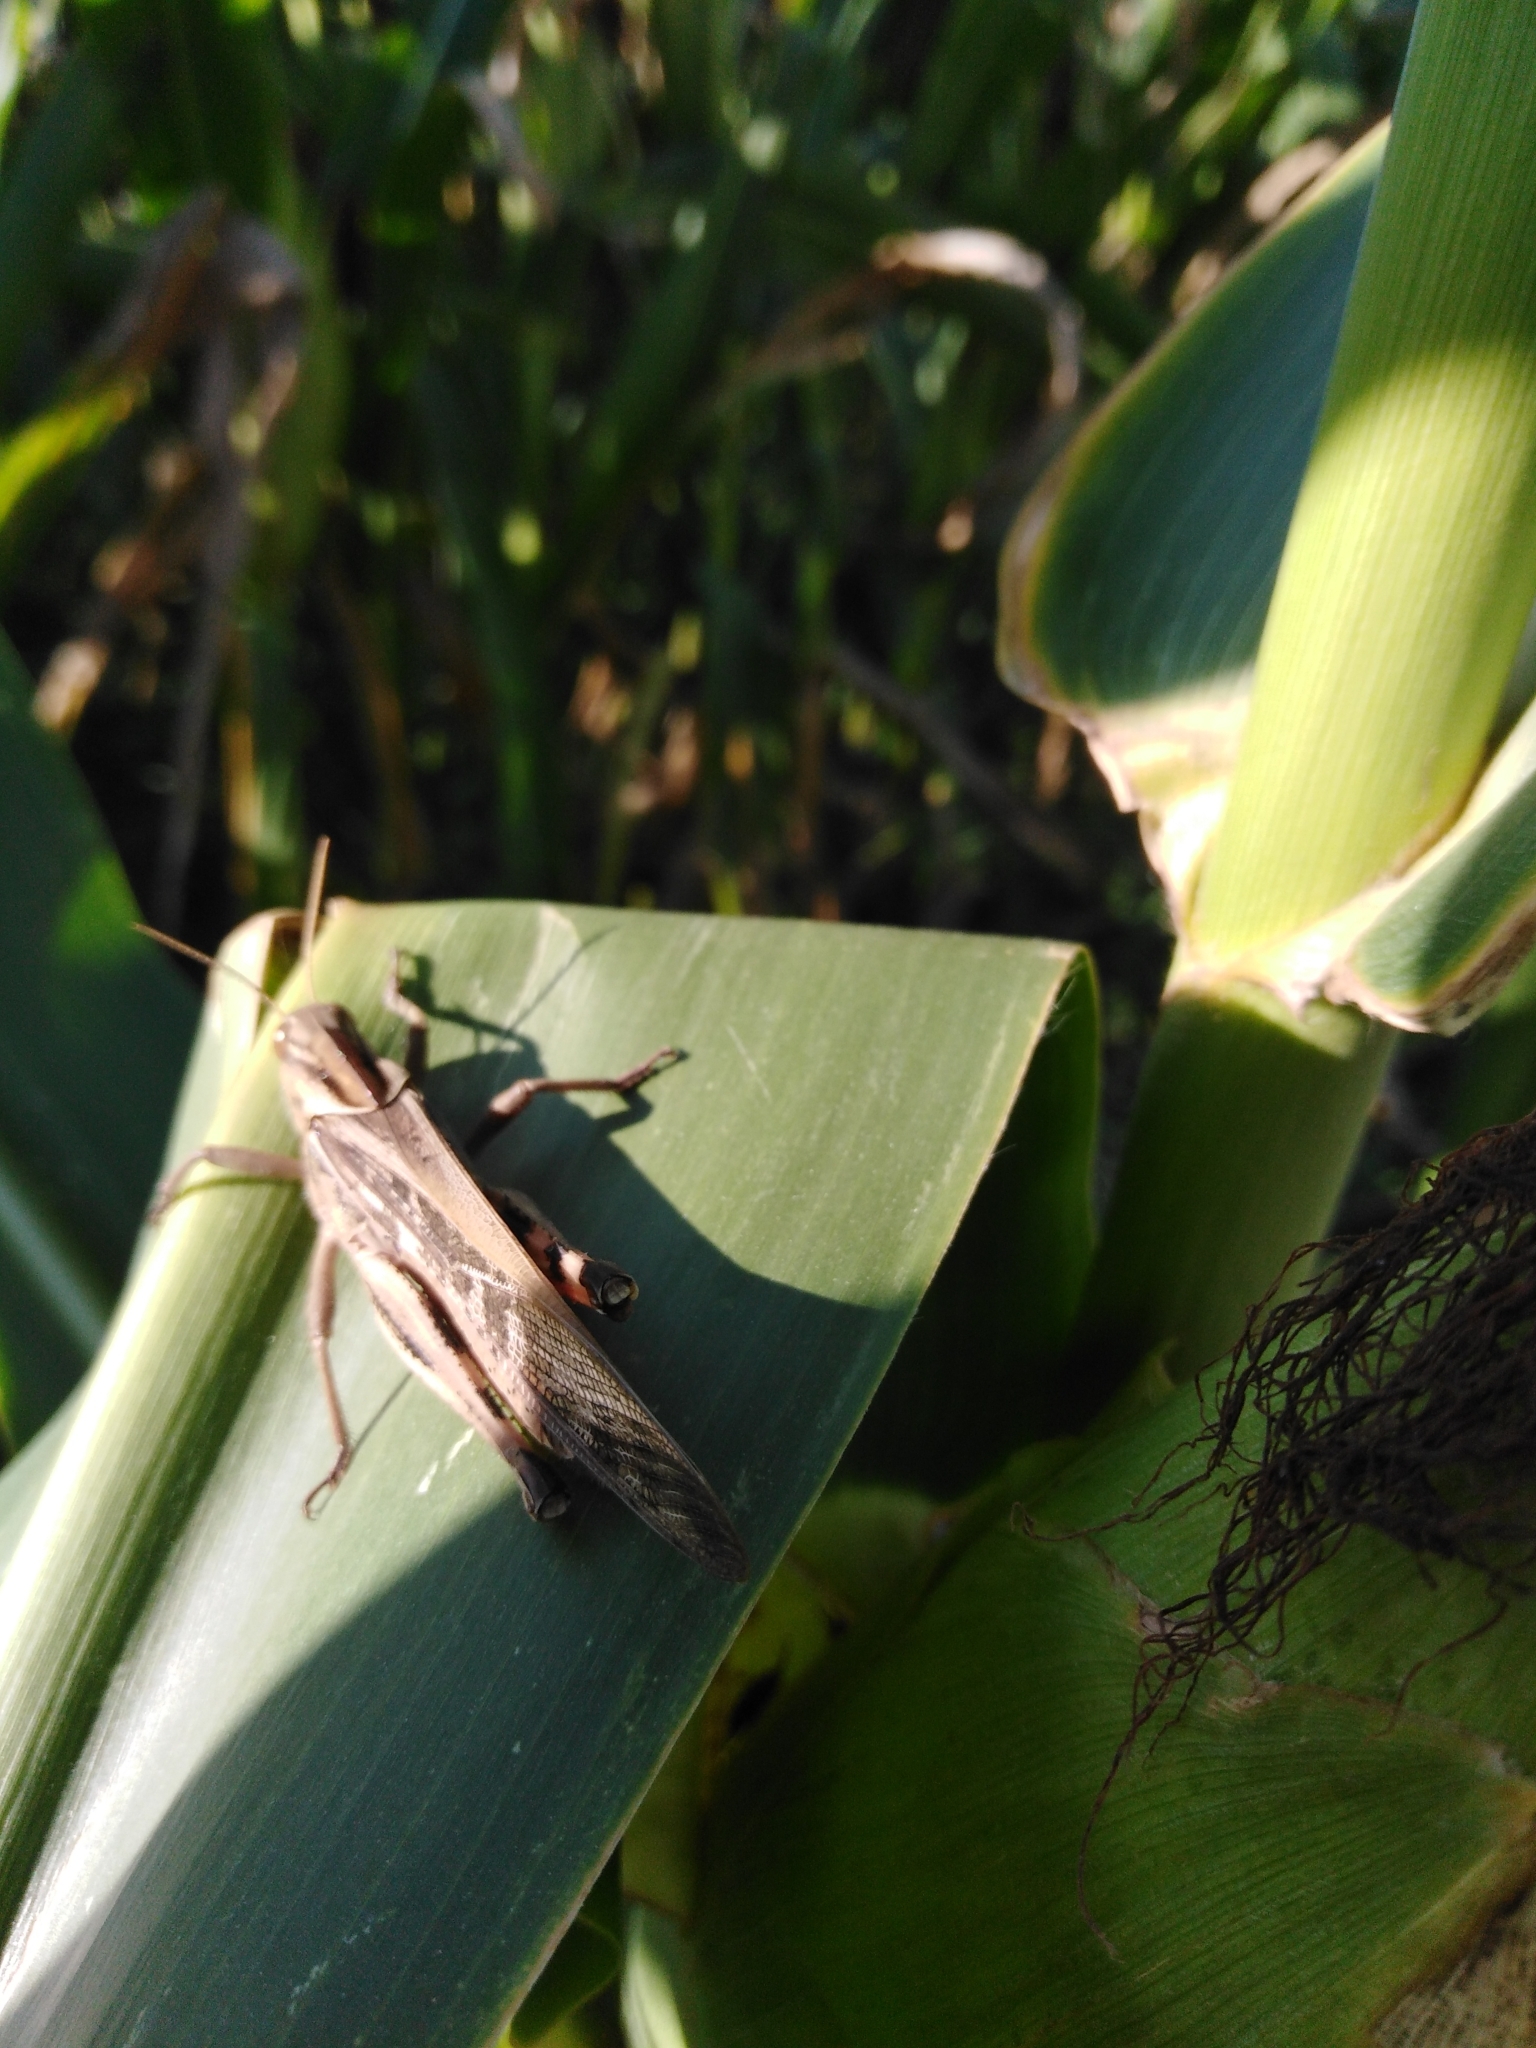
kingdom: Animalia
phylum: Arthropoda
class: Insecta
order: Orthoptera
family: Acrididae
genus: Locusta
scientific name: Locusta migratoria
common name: Migratory locust
